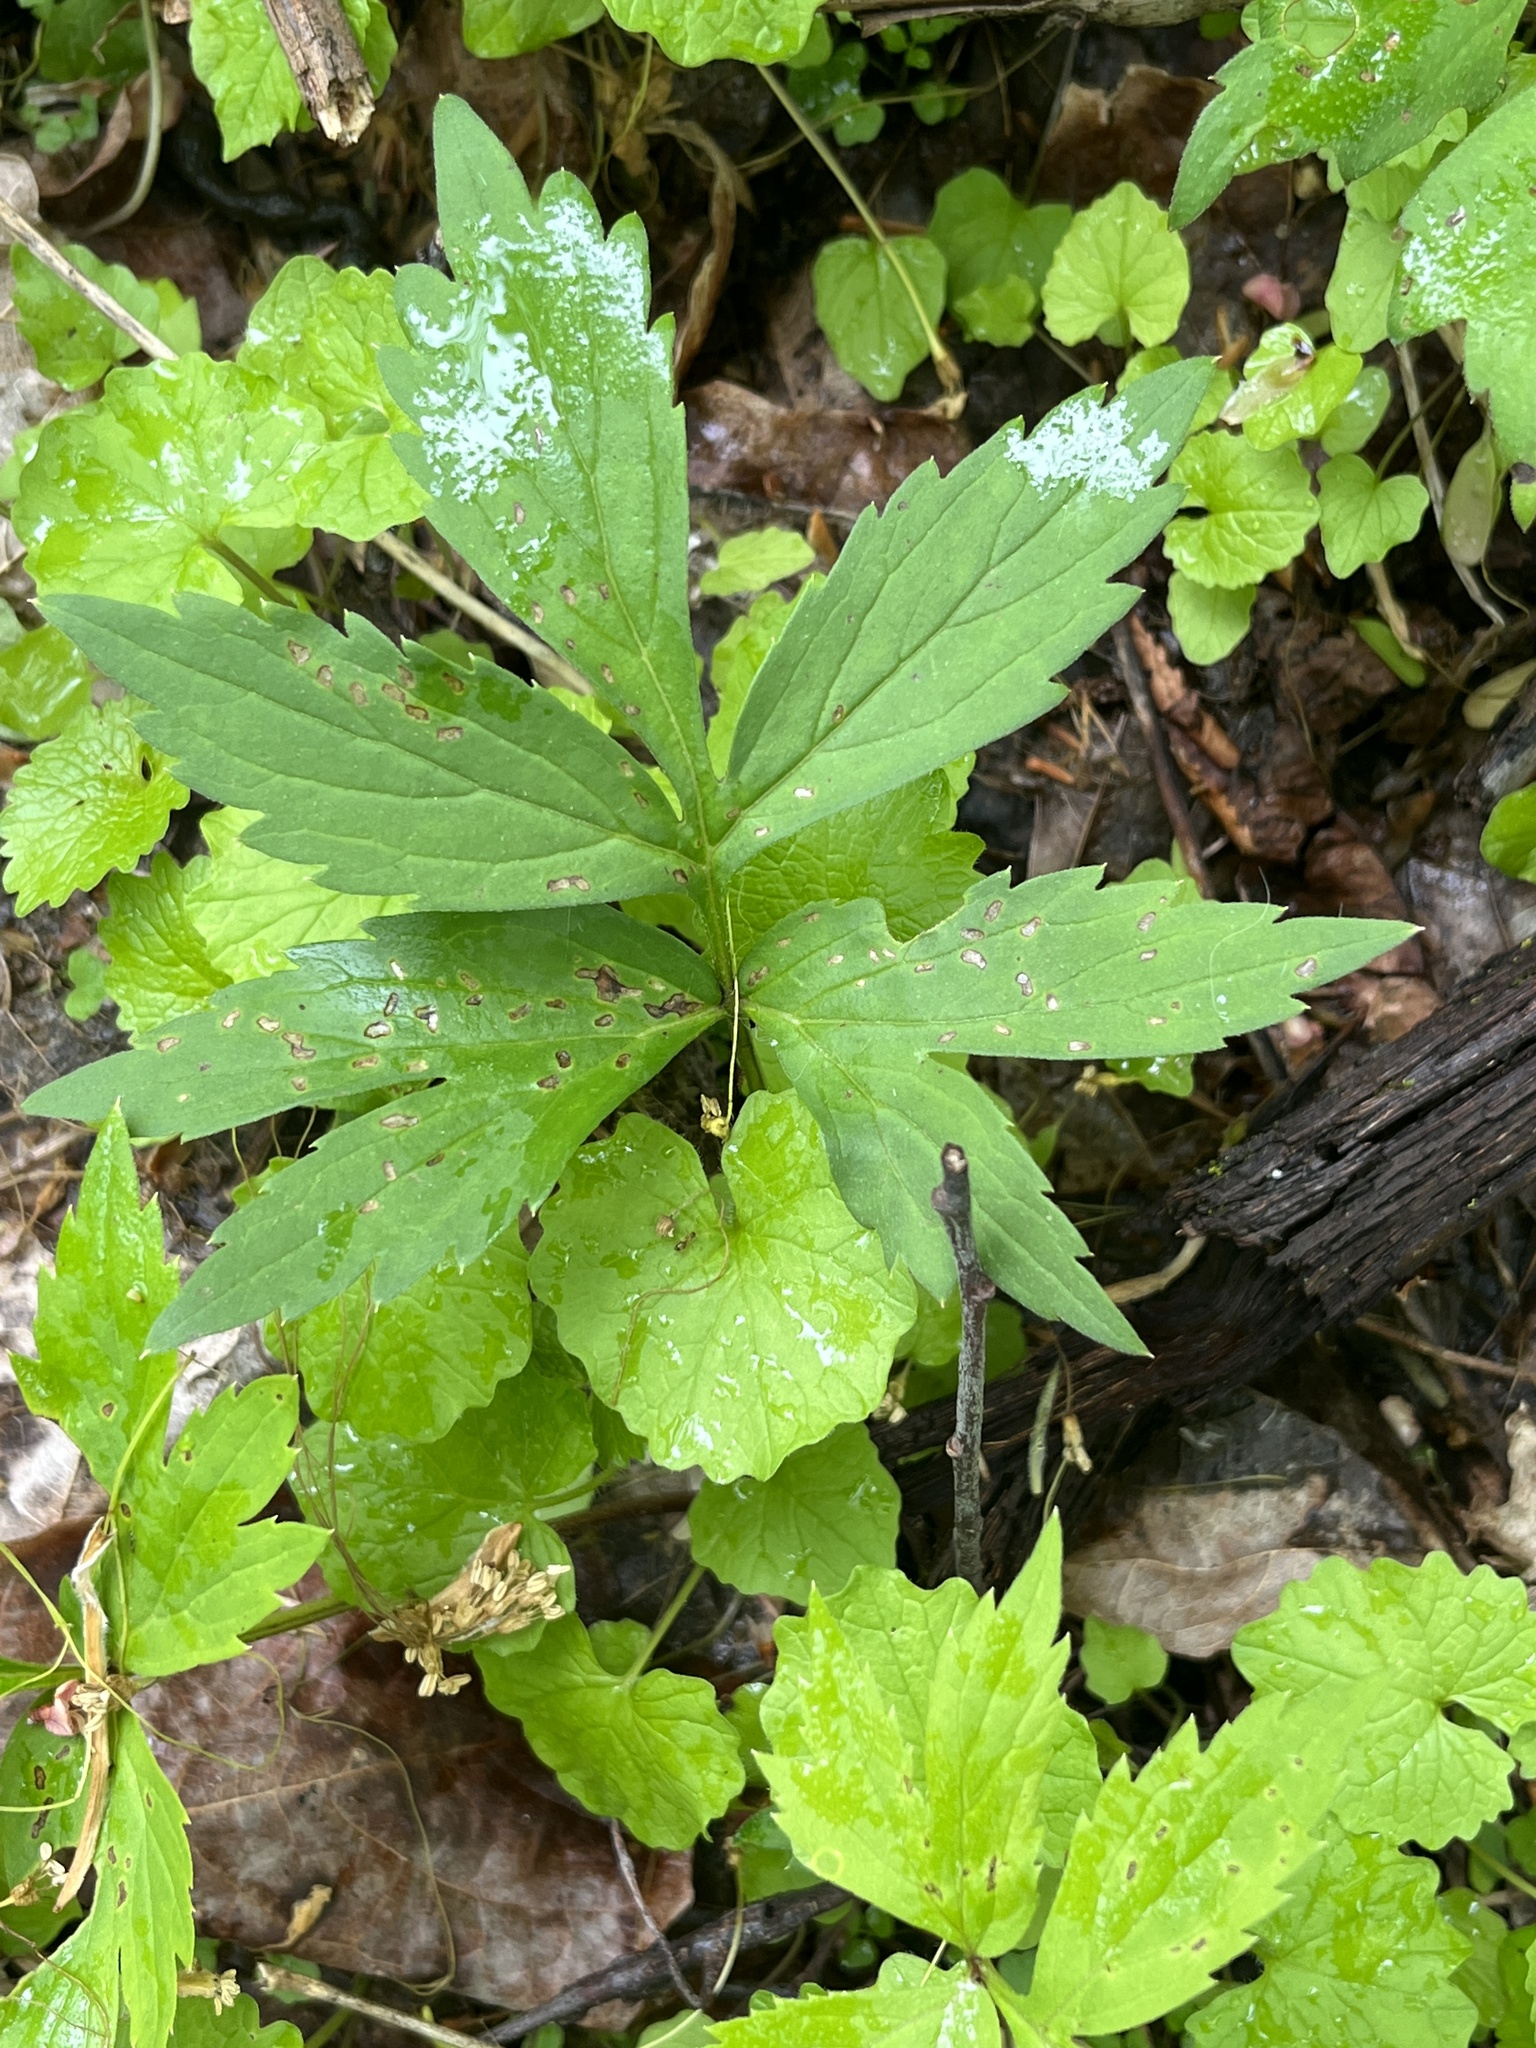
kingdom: Plantae
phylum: Tracheophyta
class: Magnoliopsida
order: Boraginales
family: Hydrophyllaceae
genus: Hydrophyllum
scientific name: Hydrophyllum virginianum
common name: Virginia waterleaf
